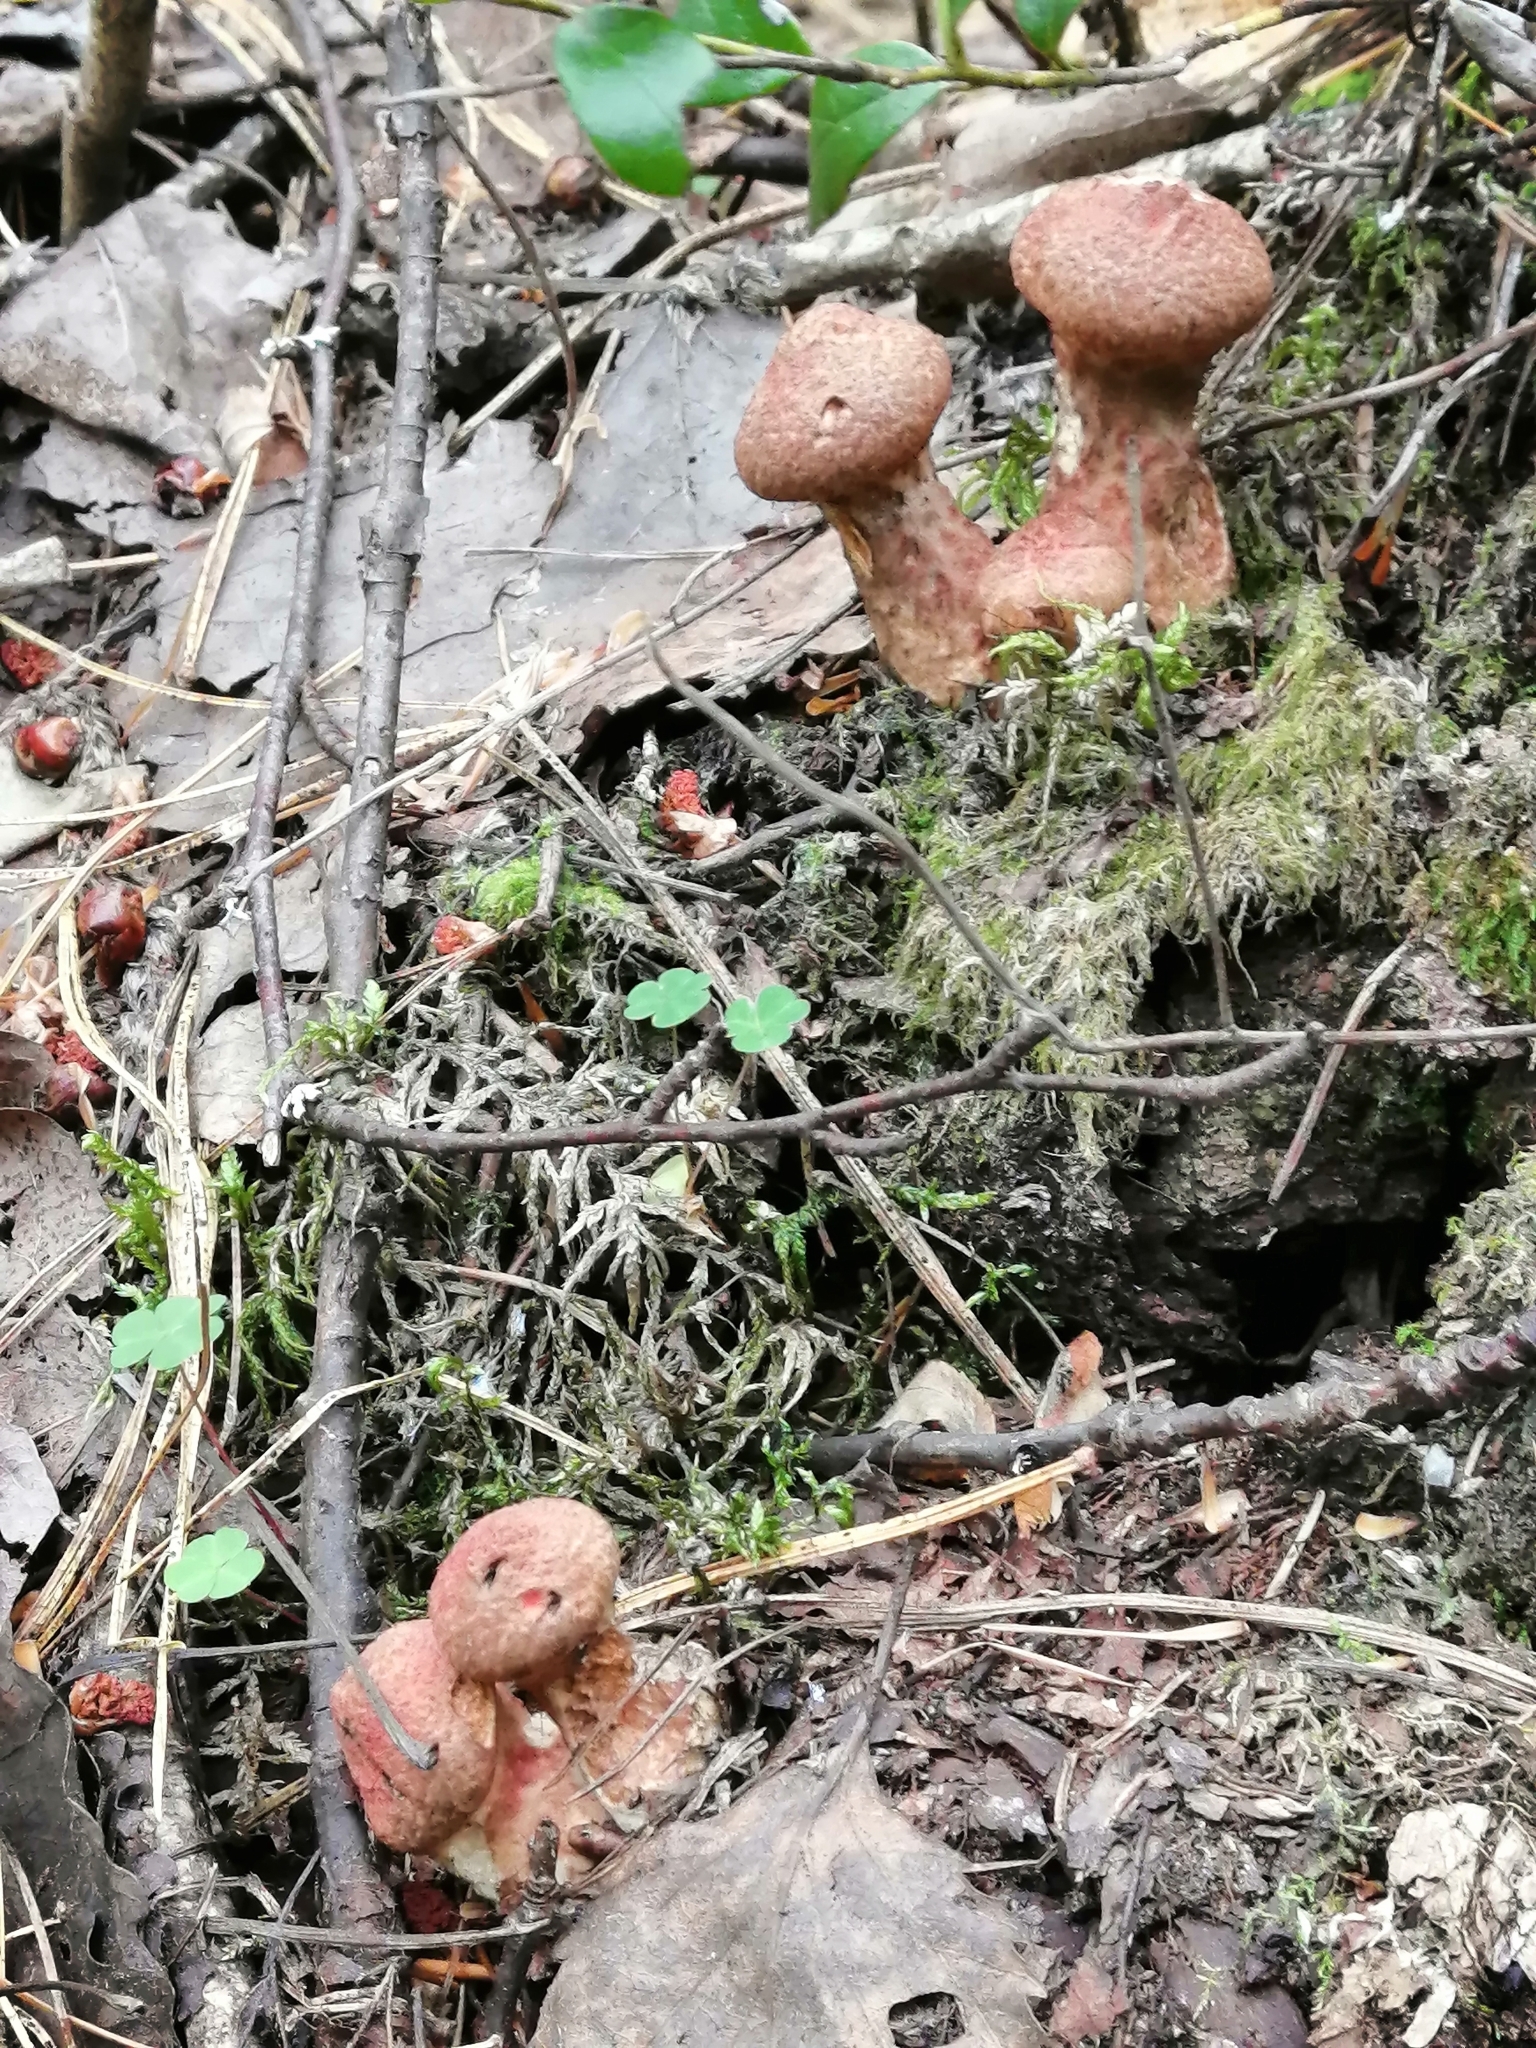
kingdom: Fungi
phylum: Basidiomycota
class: Agaricomycetes
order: Boletales
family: Suillaceae
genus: Suillus
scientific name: Suillus spraguei
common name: Painted suillus
